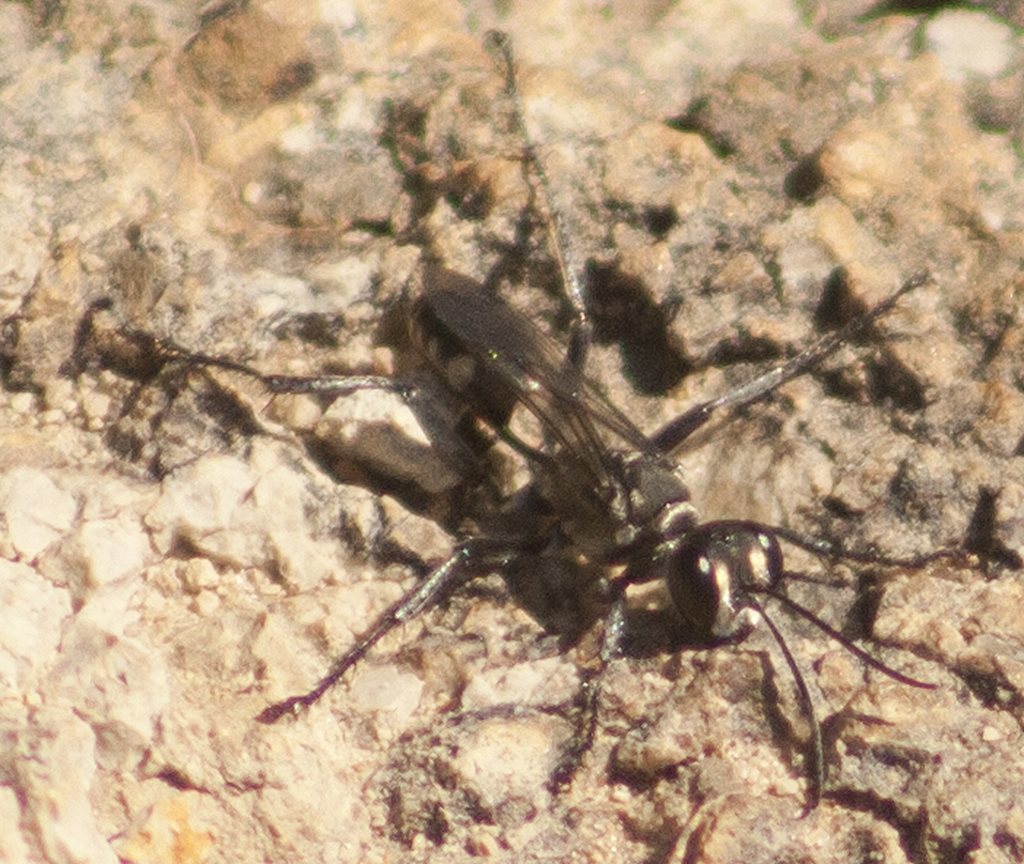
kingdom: Animalia
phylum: Arthropoda
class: Insecta
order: Hymenoptera
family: Sphecidae
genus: Prionyx
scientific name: Prionyx globosus
